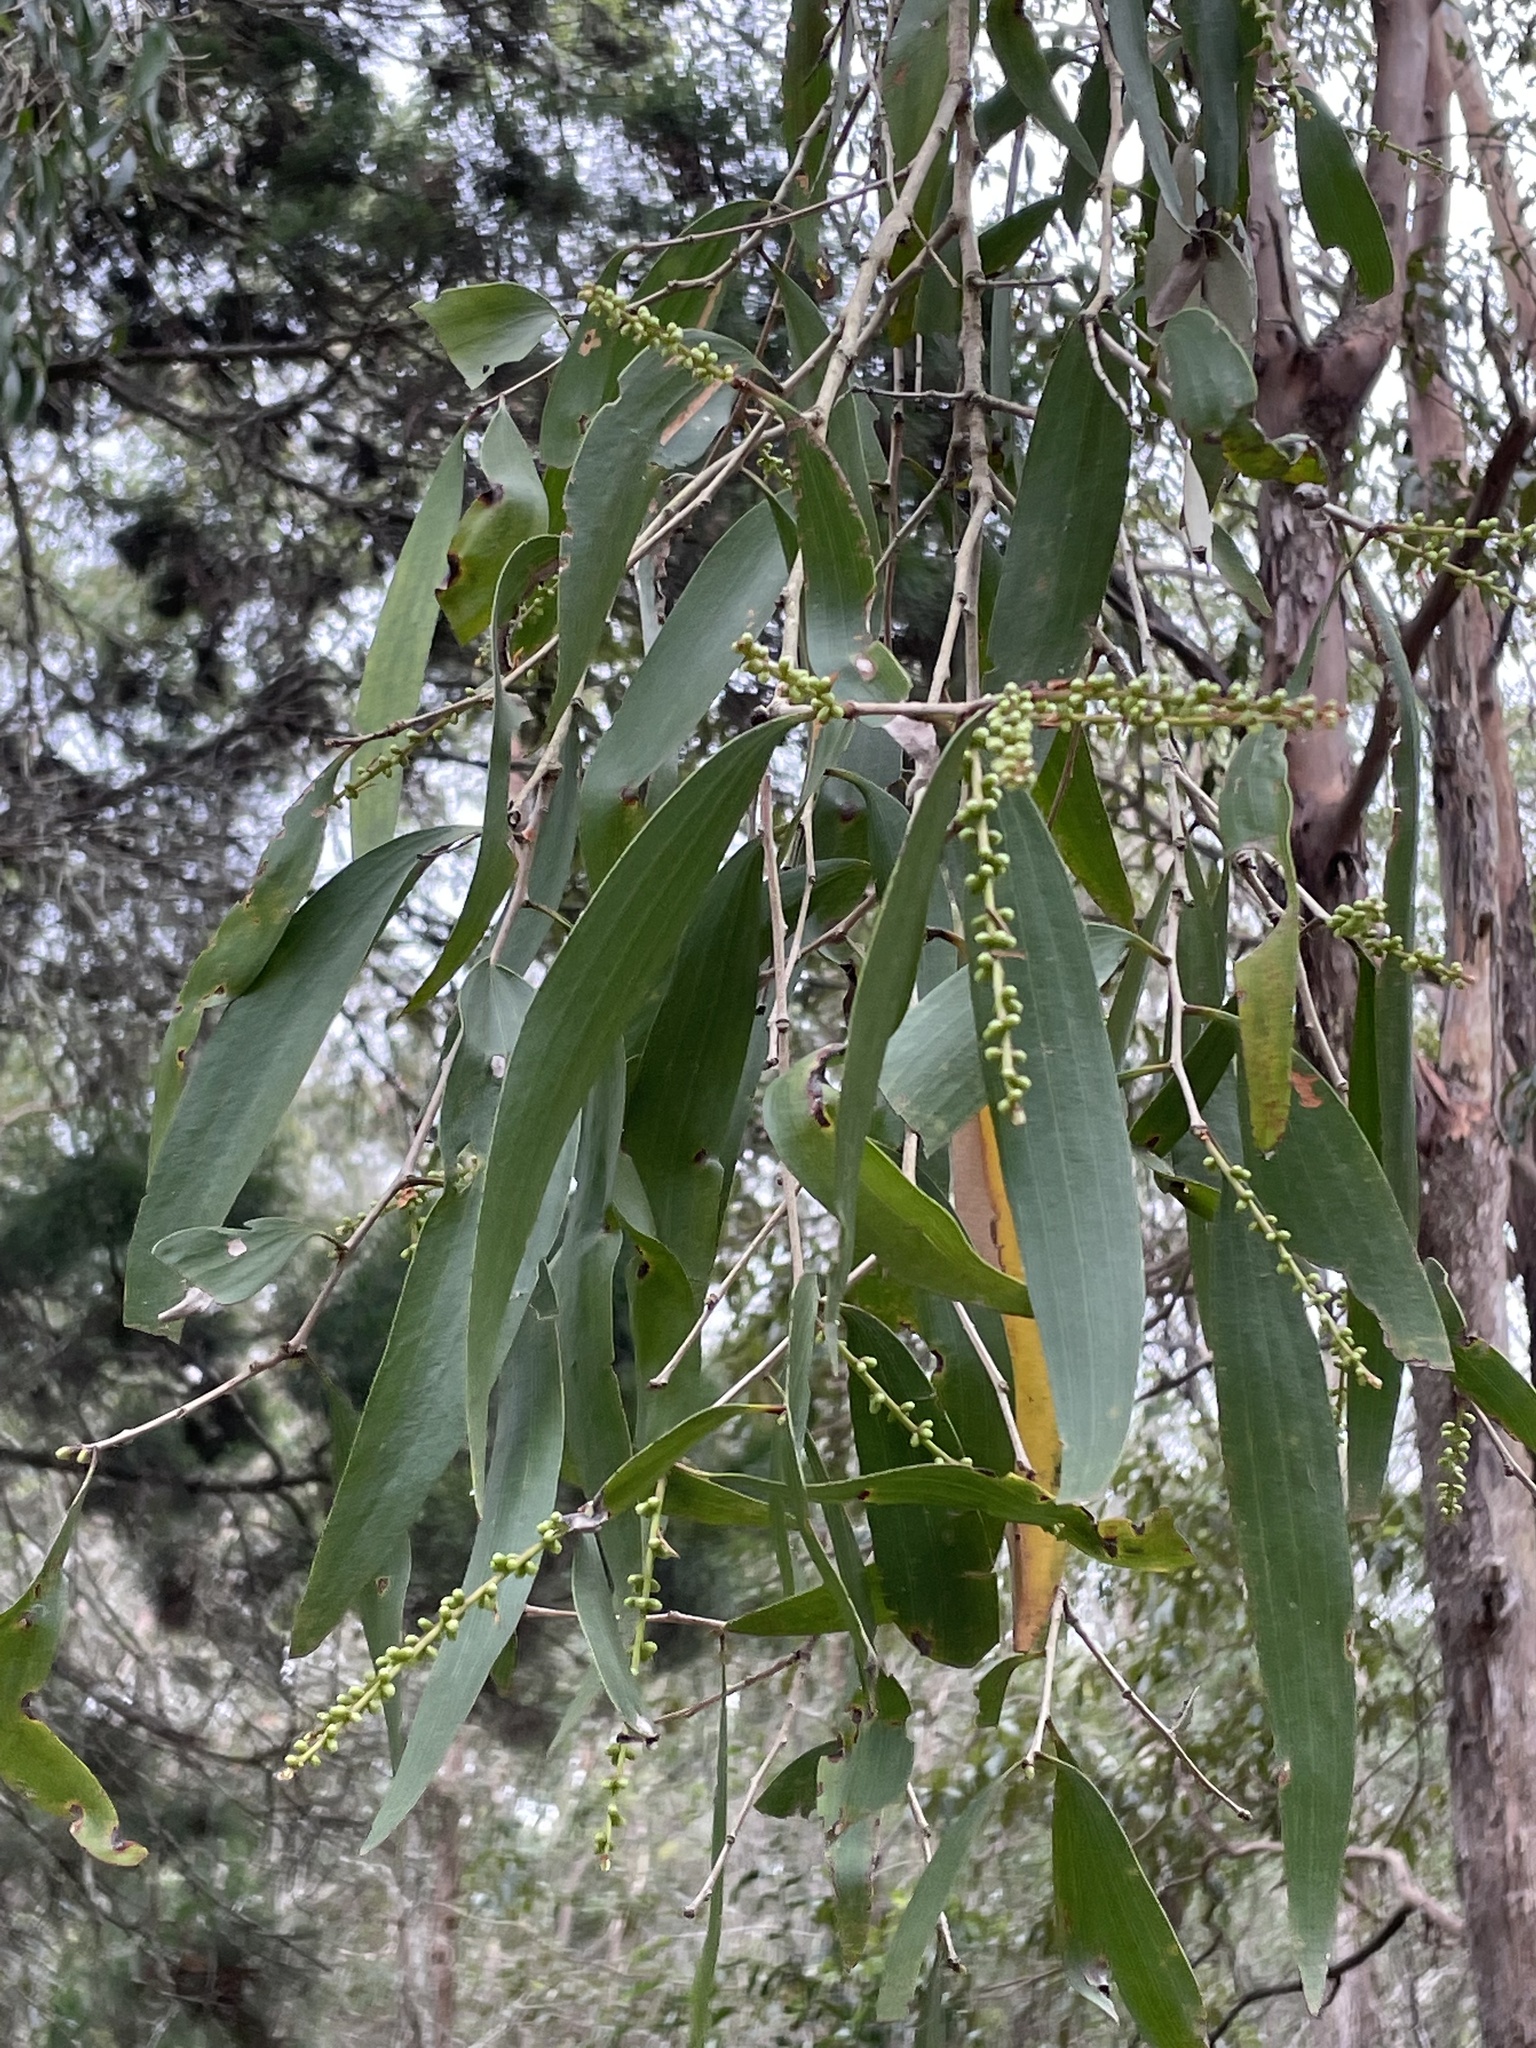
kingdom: Plantae
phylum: Tracheophyta
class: Magnoliopsida
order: Myrtales
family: Myrtaceae
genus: Melaleuca
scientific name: Melaleuca quinquenervia
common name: Punktree
